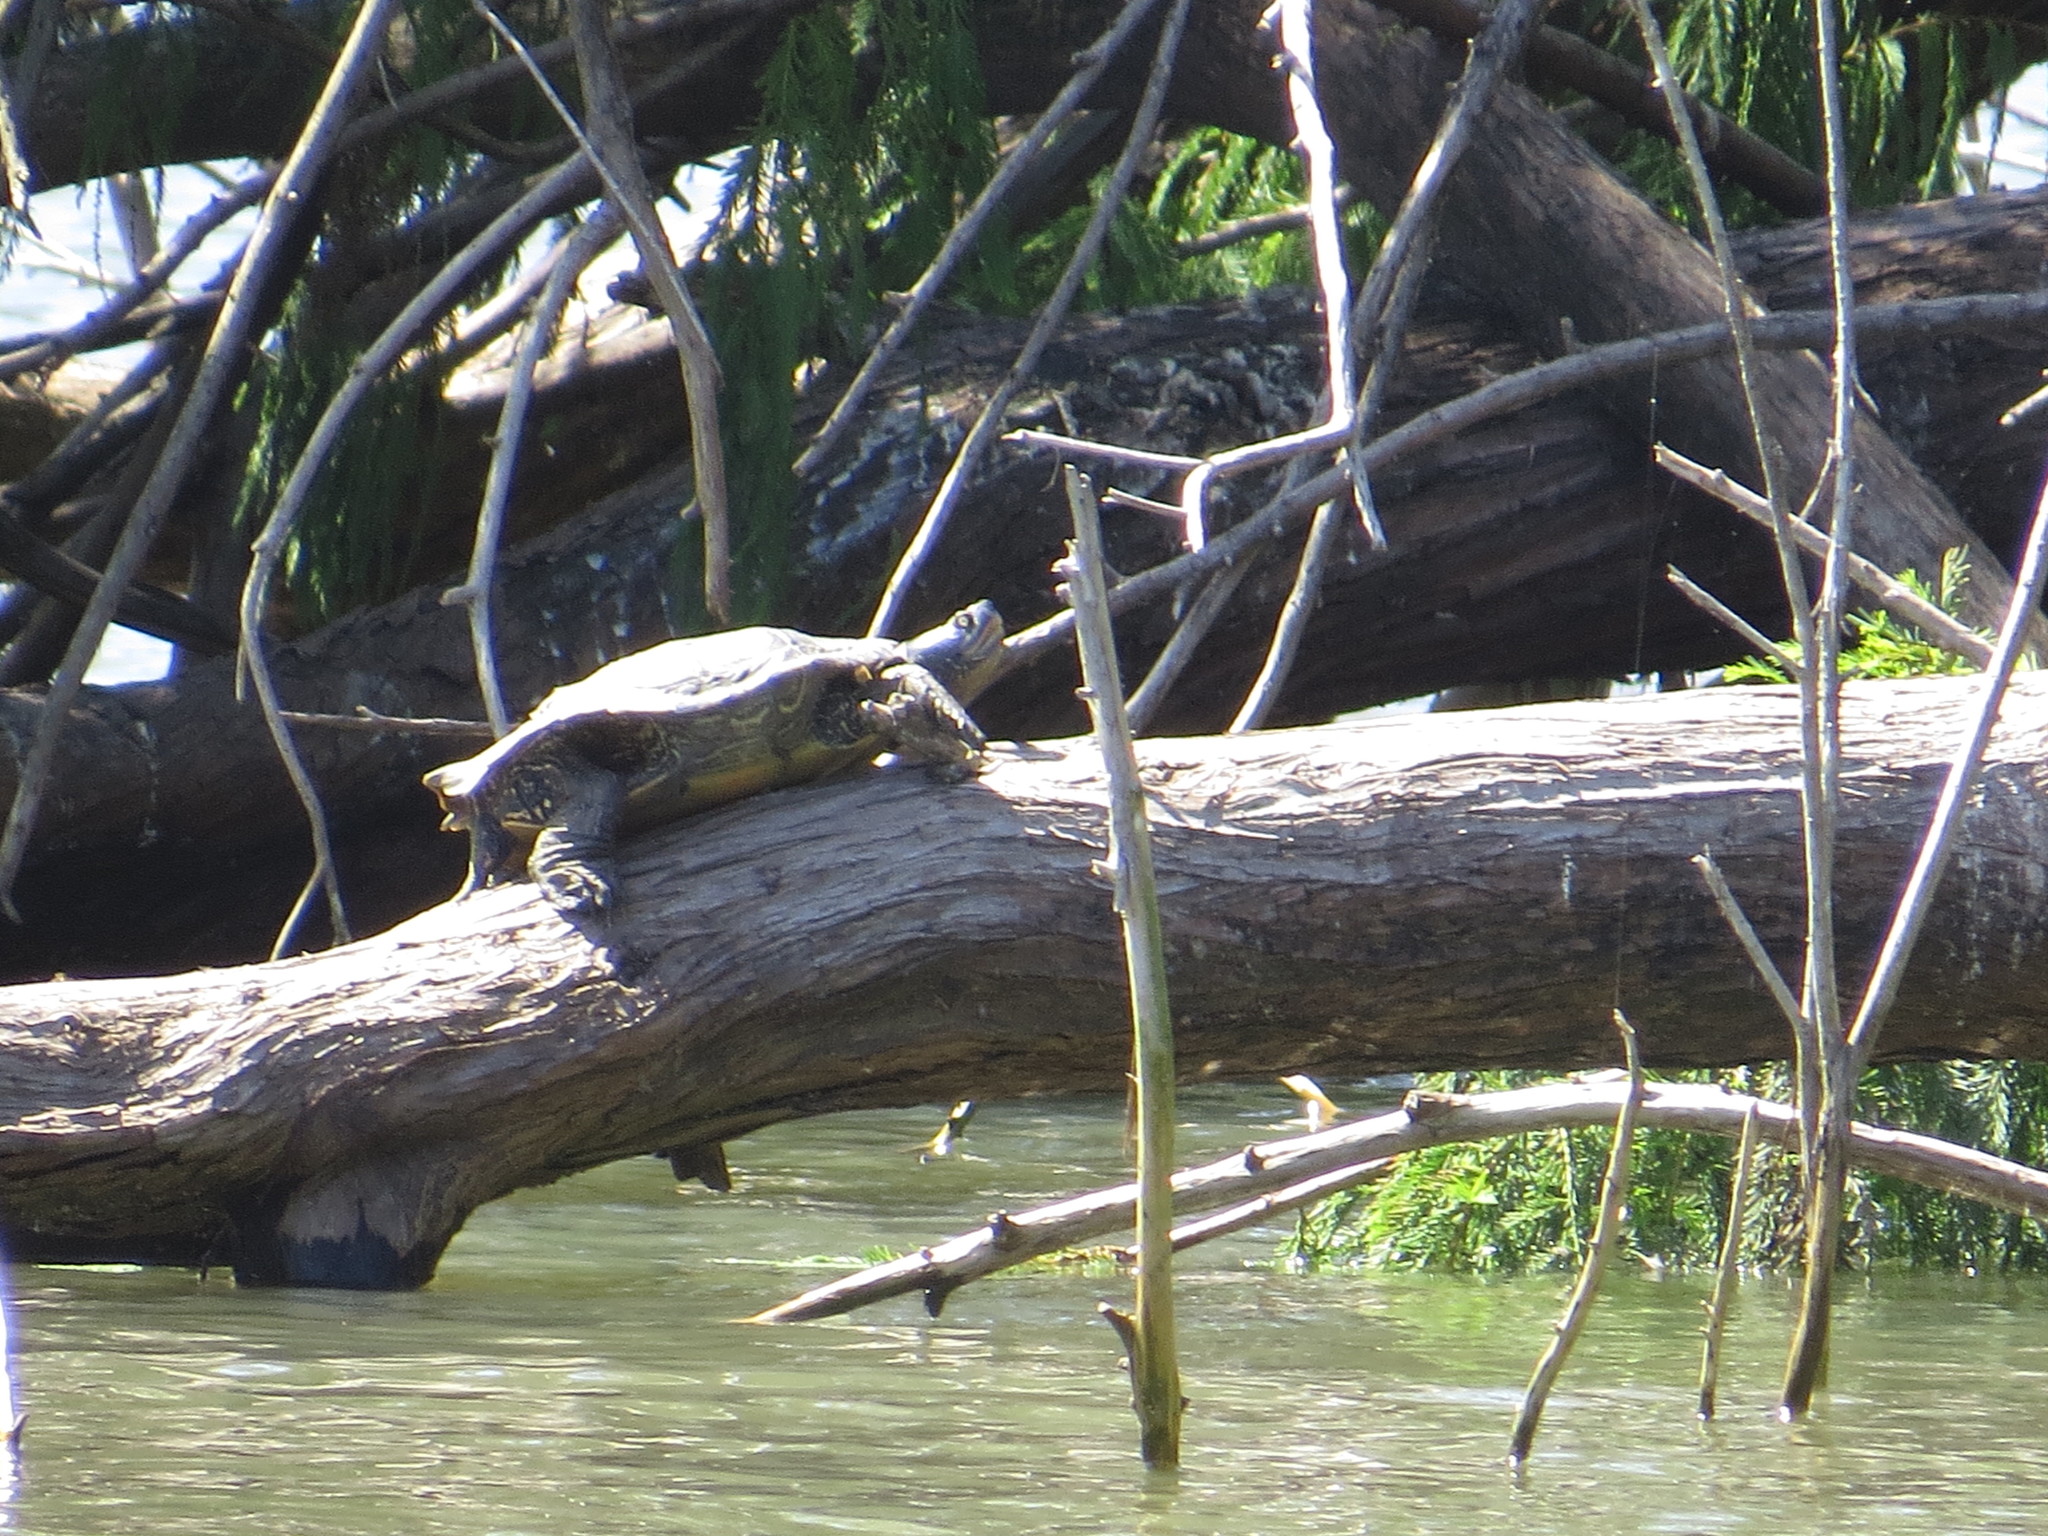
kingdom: Animalia
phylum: Chordata
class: Testudines
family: Emydidae
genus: Trachemys
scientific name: Trachemys dorbigni
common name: Black-bellied slider
